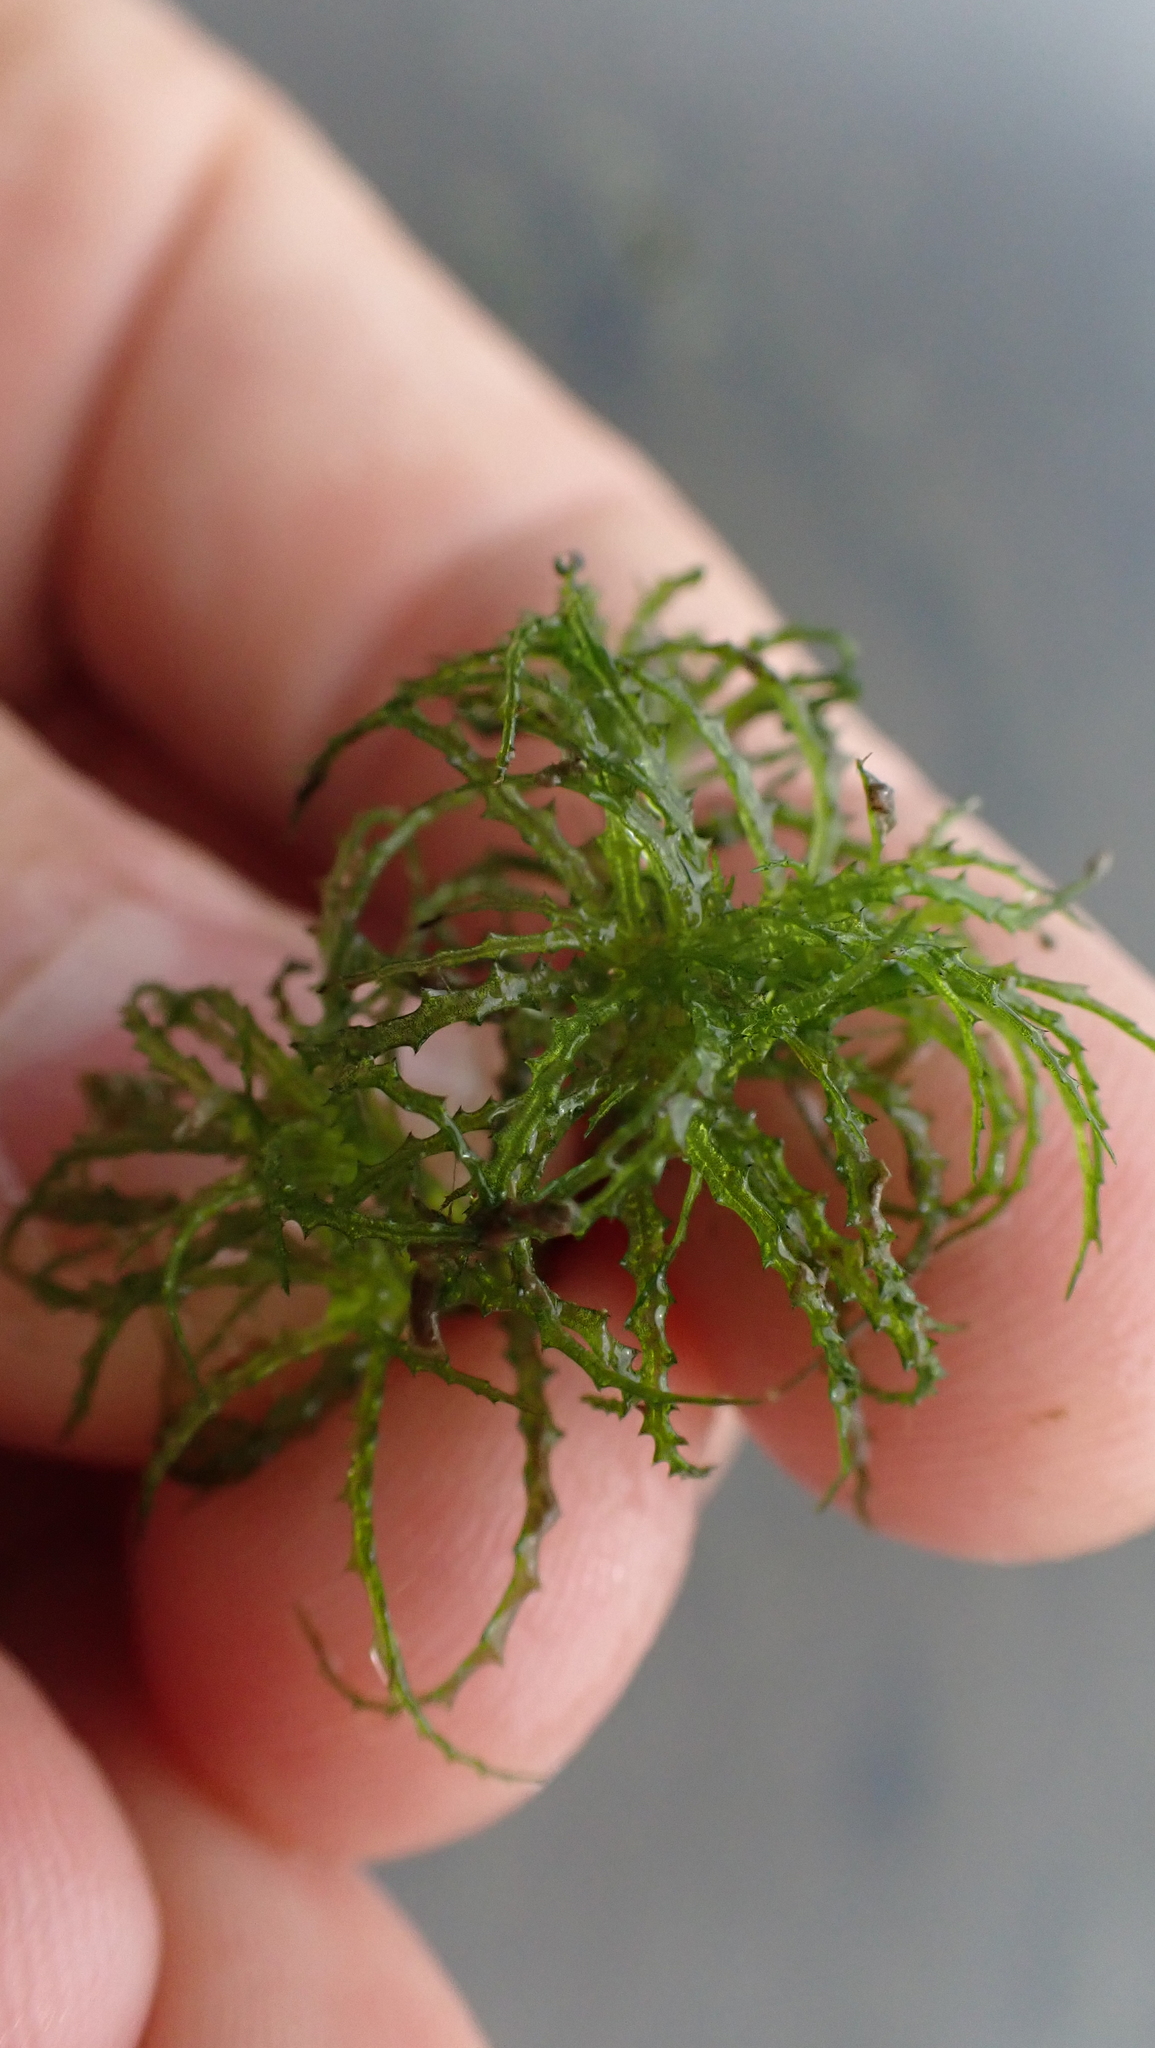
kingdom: Plantae
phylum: Tracheophyta
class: Liliopsida
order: Alismatales
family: Hydrocharitaceae
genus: Najas
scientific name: Najas minor
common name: Brittle naiad
